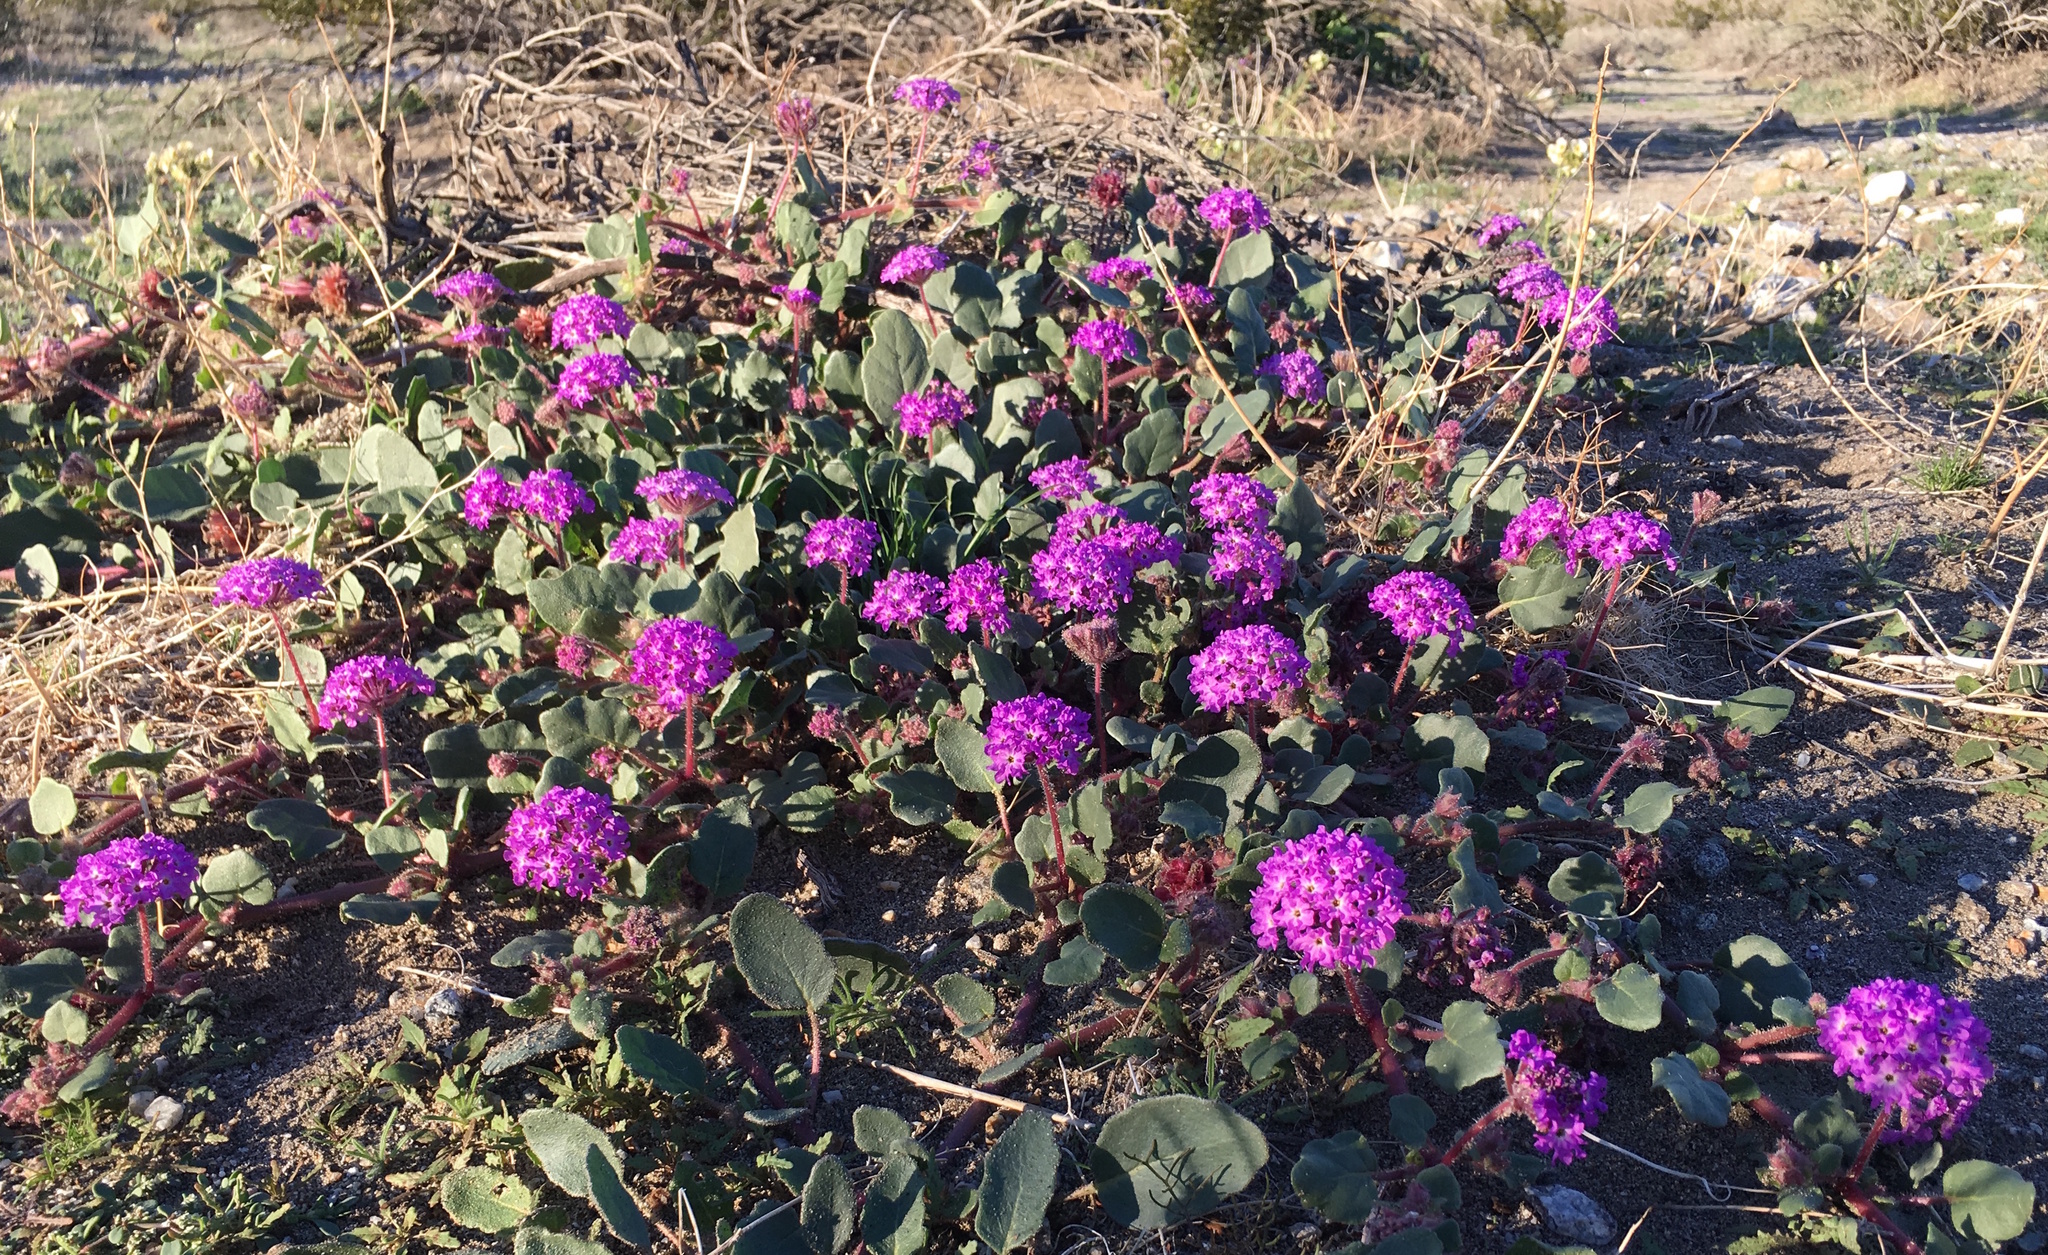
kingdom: Plantae
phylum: Tracheophyta
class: Magnoliopsida
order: Caryophyllales
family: Nyctaginaceae
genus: Abronia
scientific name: Abronia villosa
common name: Desert sand-verbena
